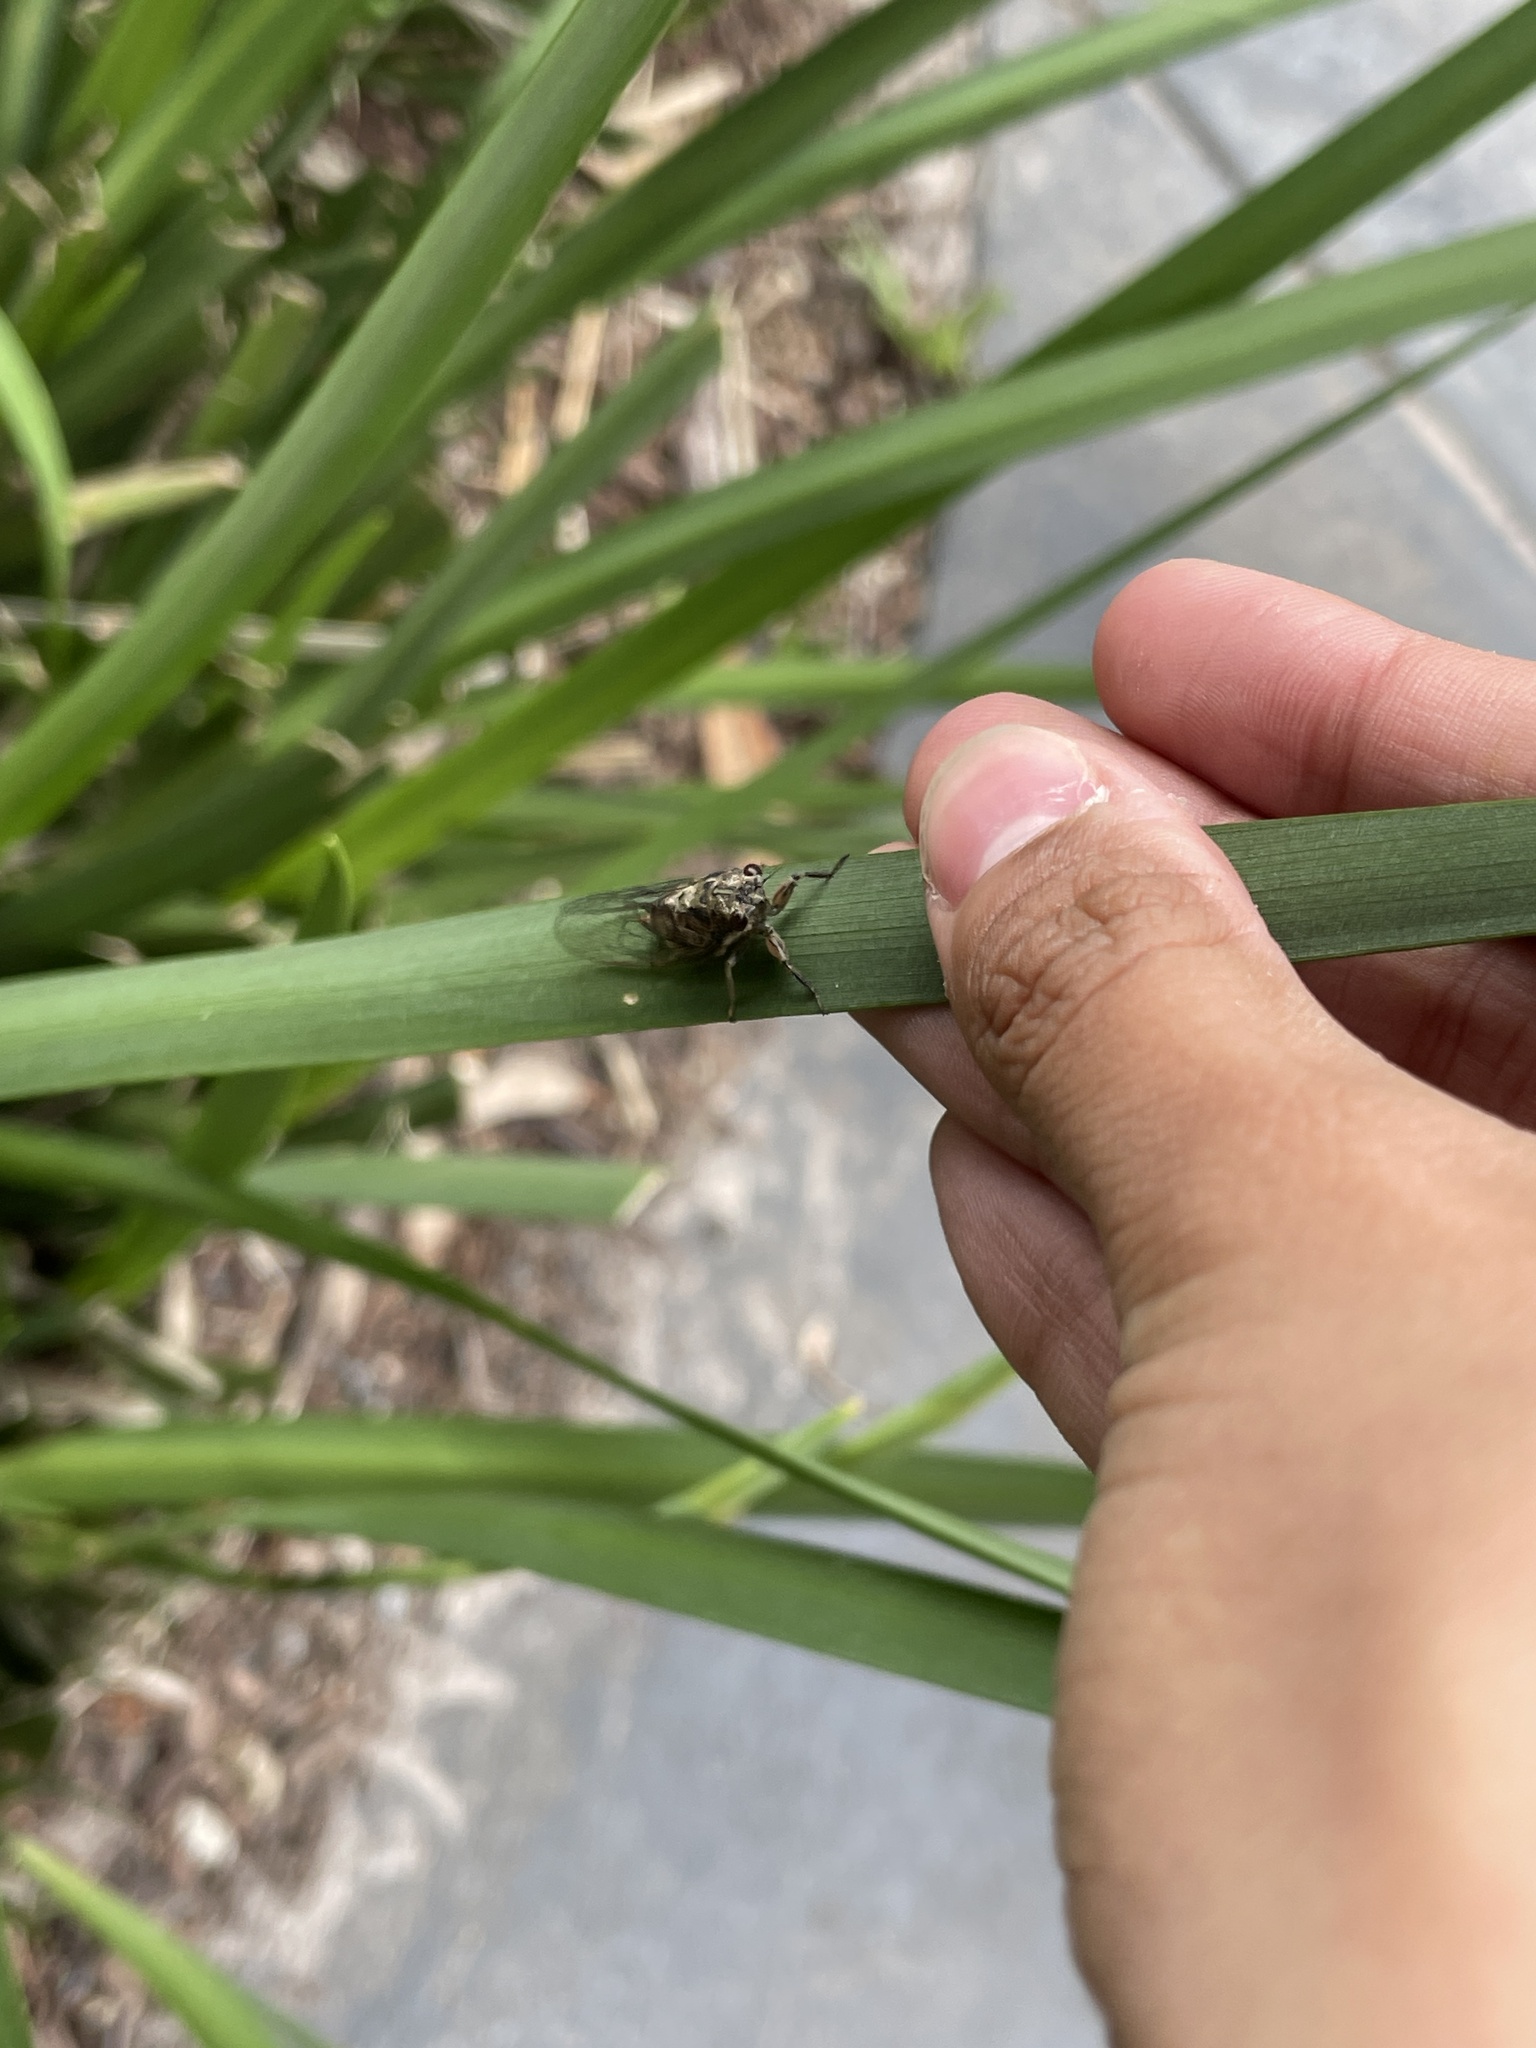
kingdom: Animalia
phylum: Arthropoda
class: Insecta
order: Hemiptera
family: Cicadidae
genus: Yoyetta
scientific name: Yoyetta celis
